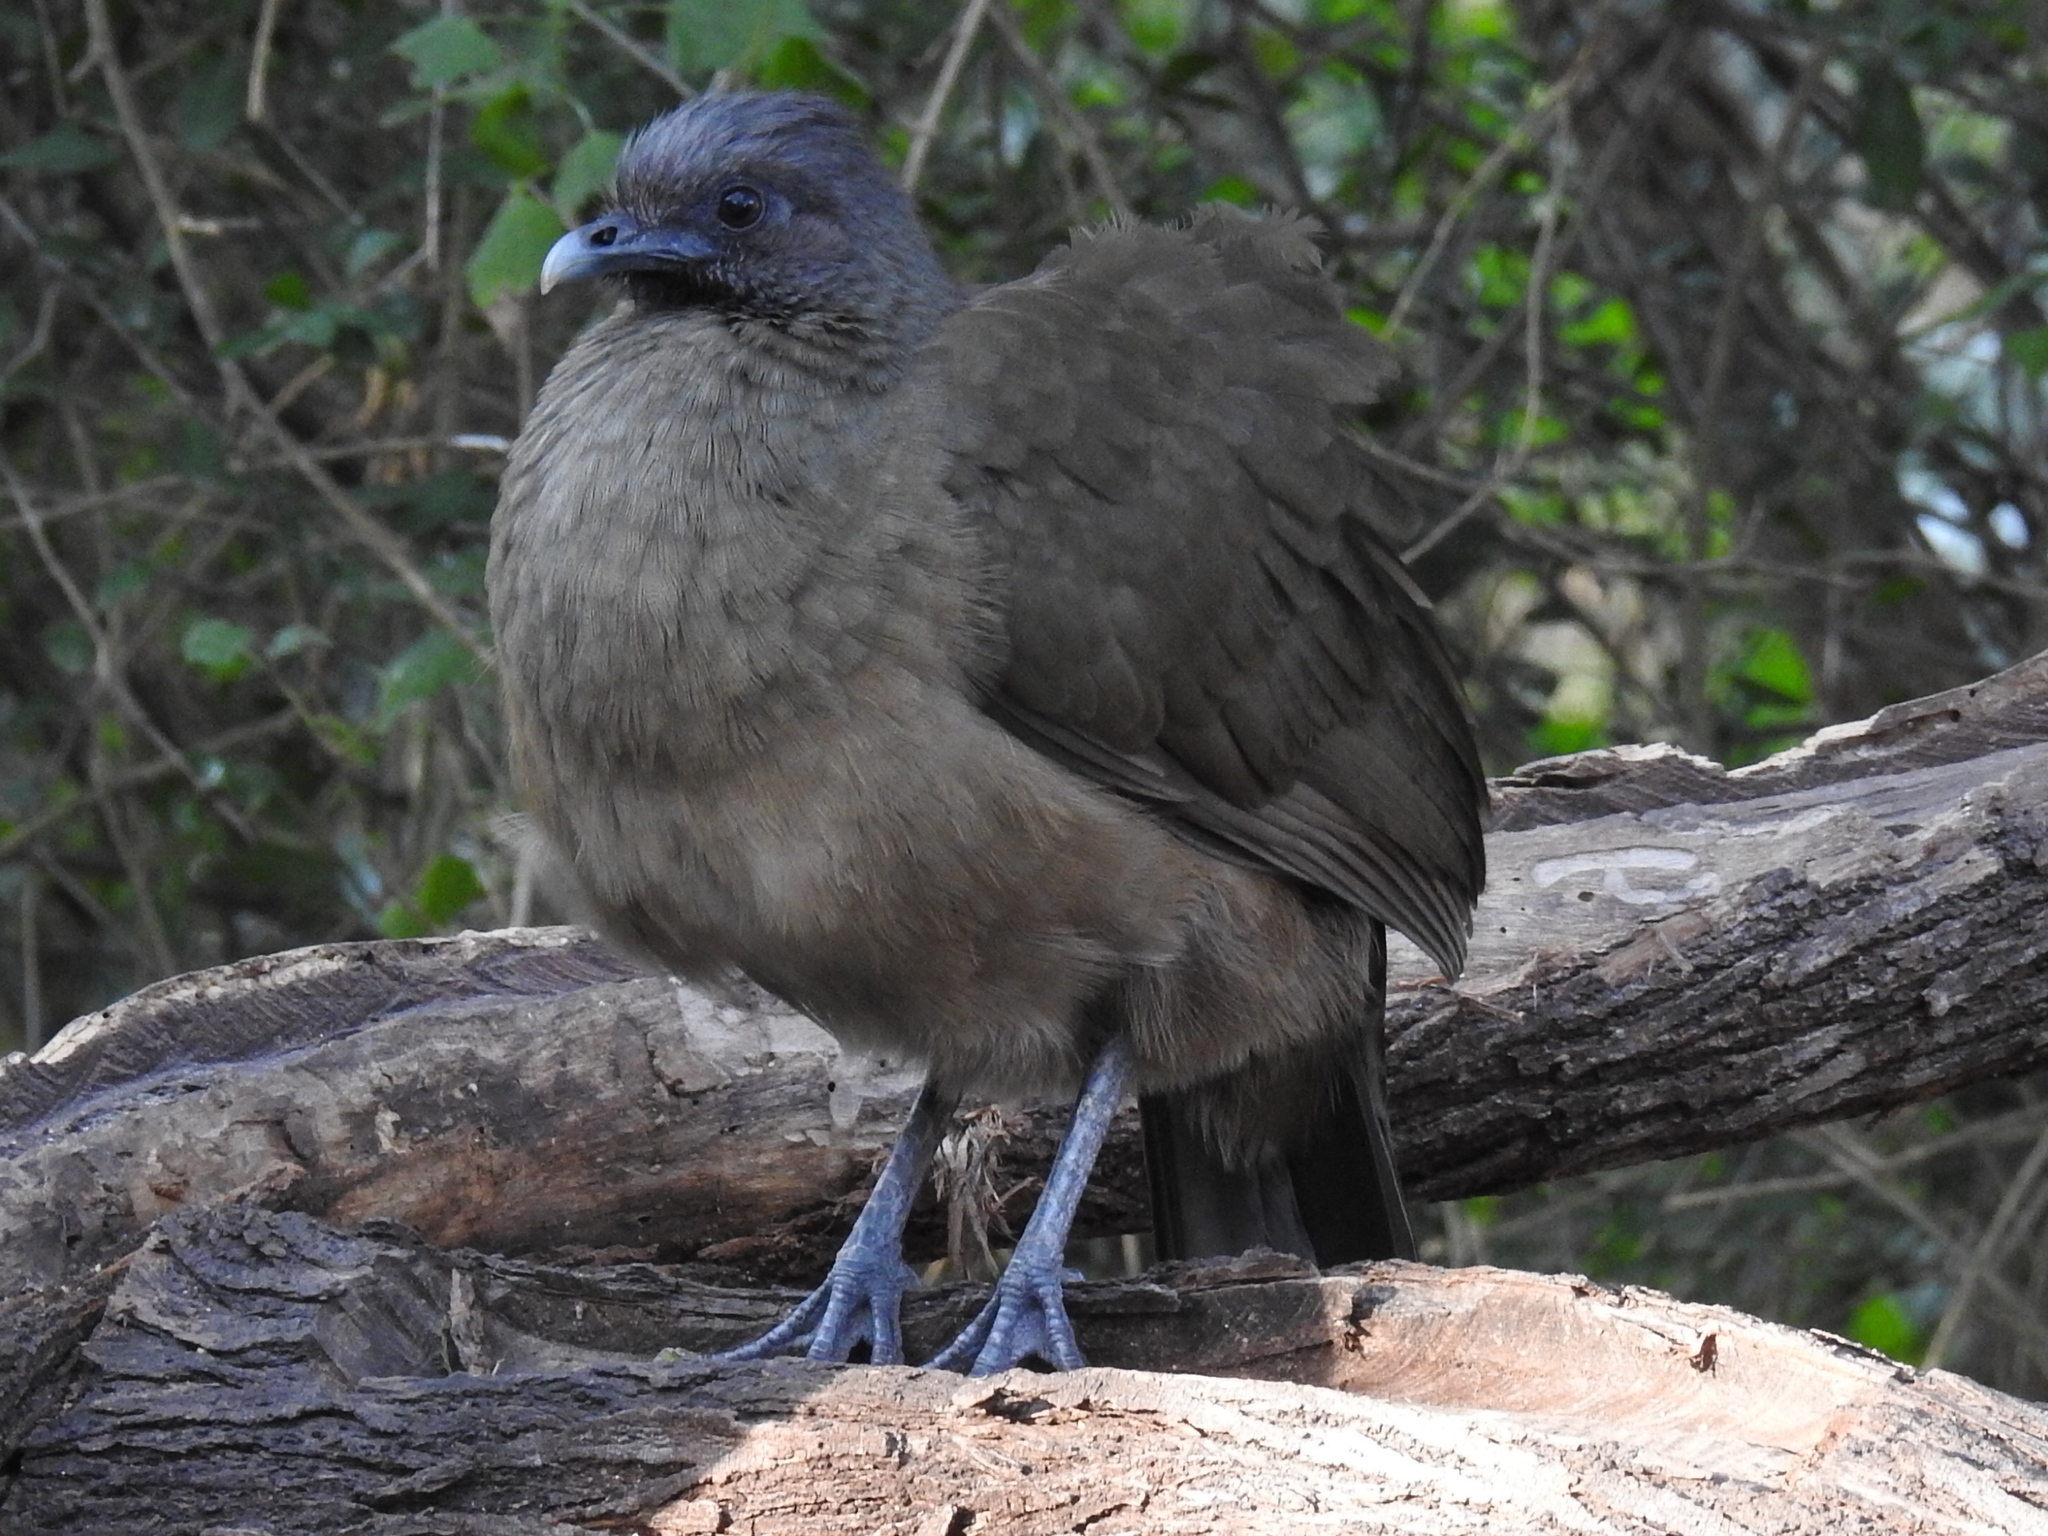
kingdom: Animalia
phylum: Chordata
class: Aves
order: Galliformes
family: Cracidae
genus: Ortalis
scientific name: Ortalis vetula
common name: Plain chachalaca
